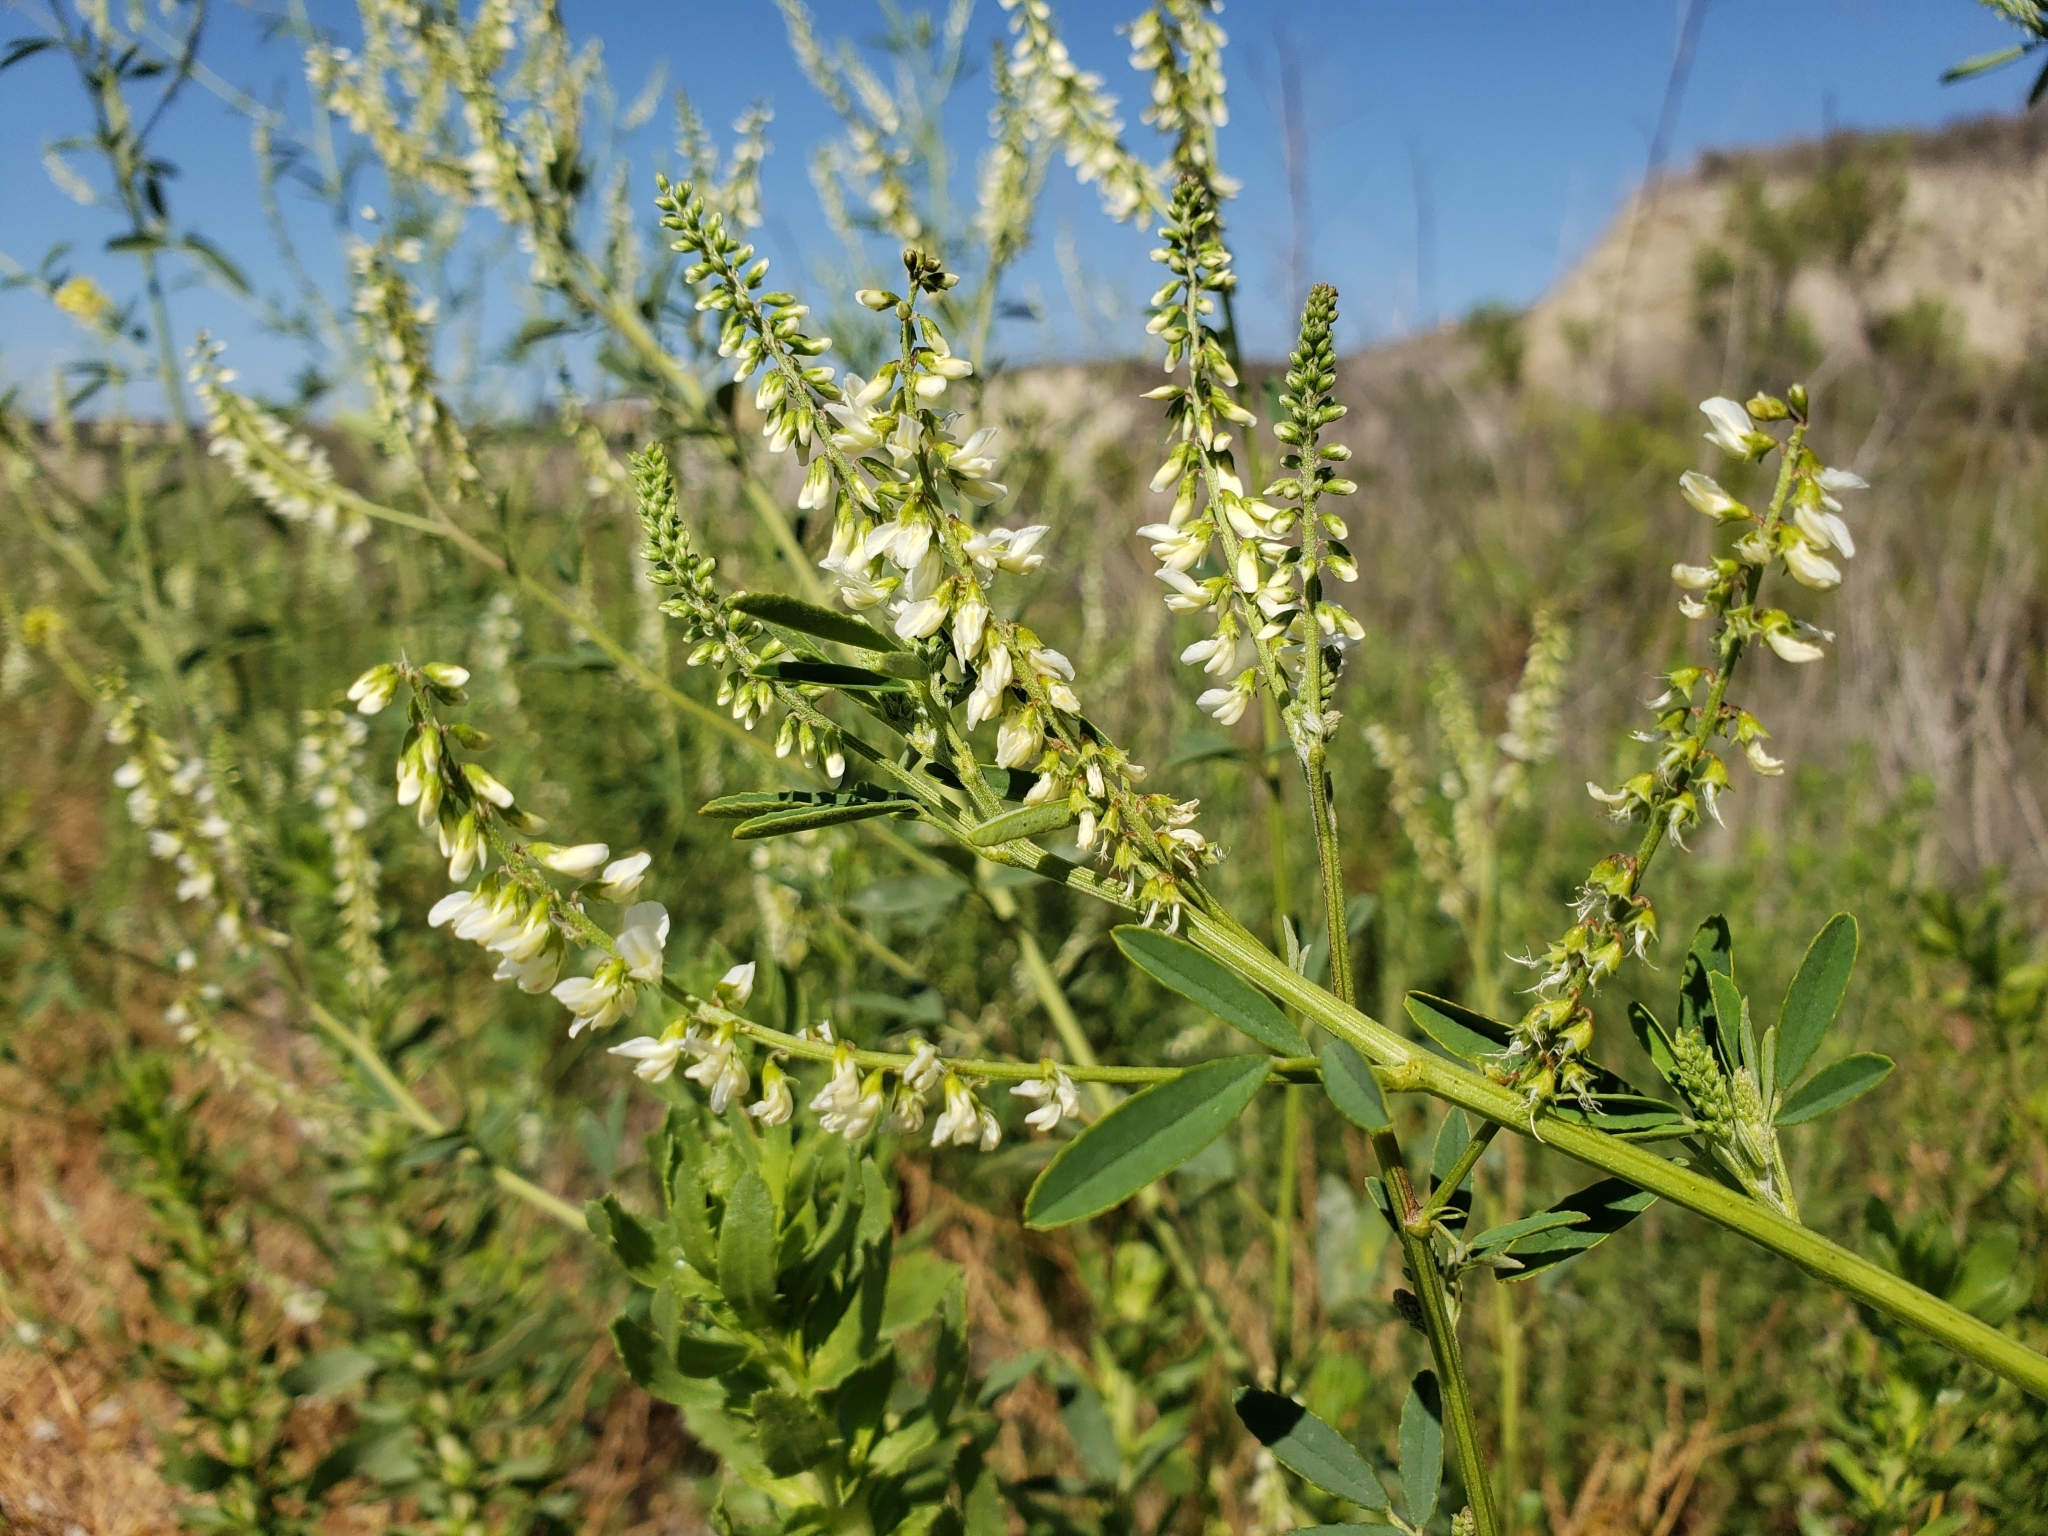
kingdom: Plantae
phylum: Tracheophyta
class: Magnoliopsida
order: Fabales
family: Fabaceae
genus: Melilotus
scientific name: Melilotus albus
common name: White melilot
